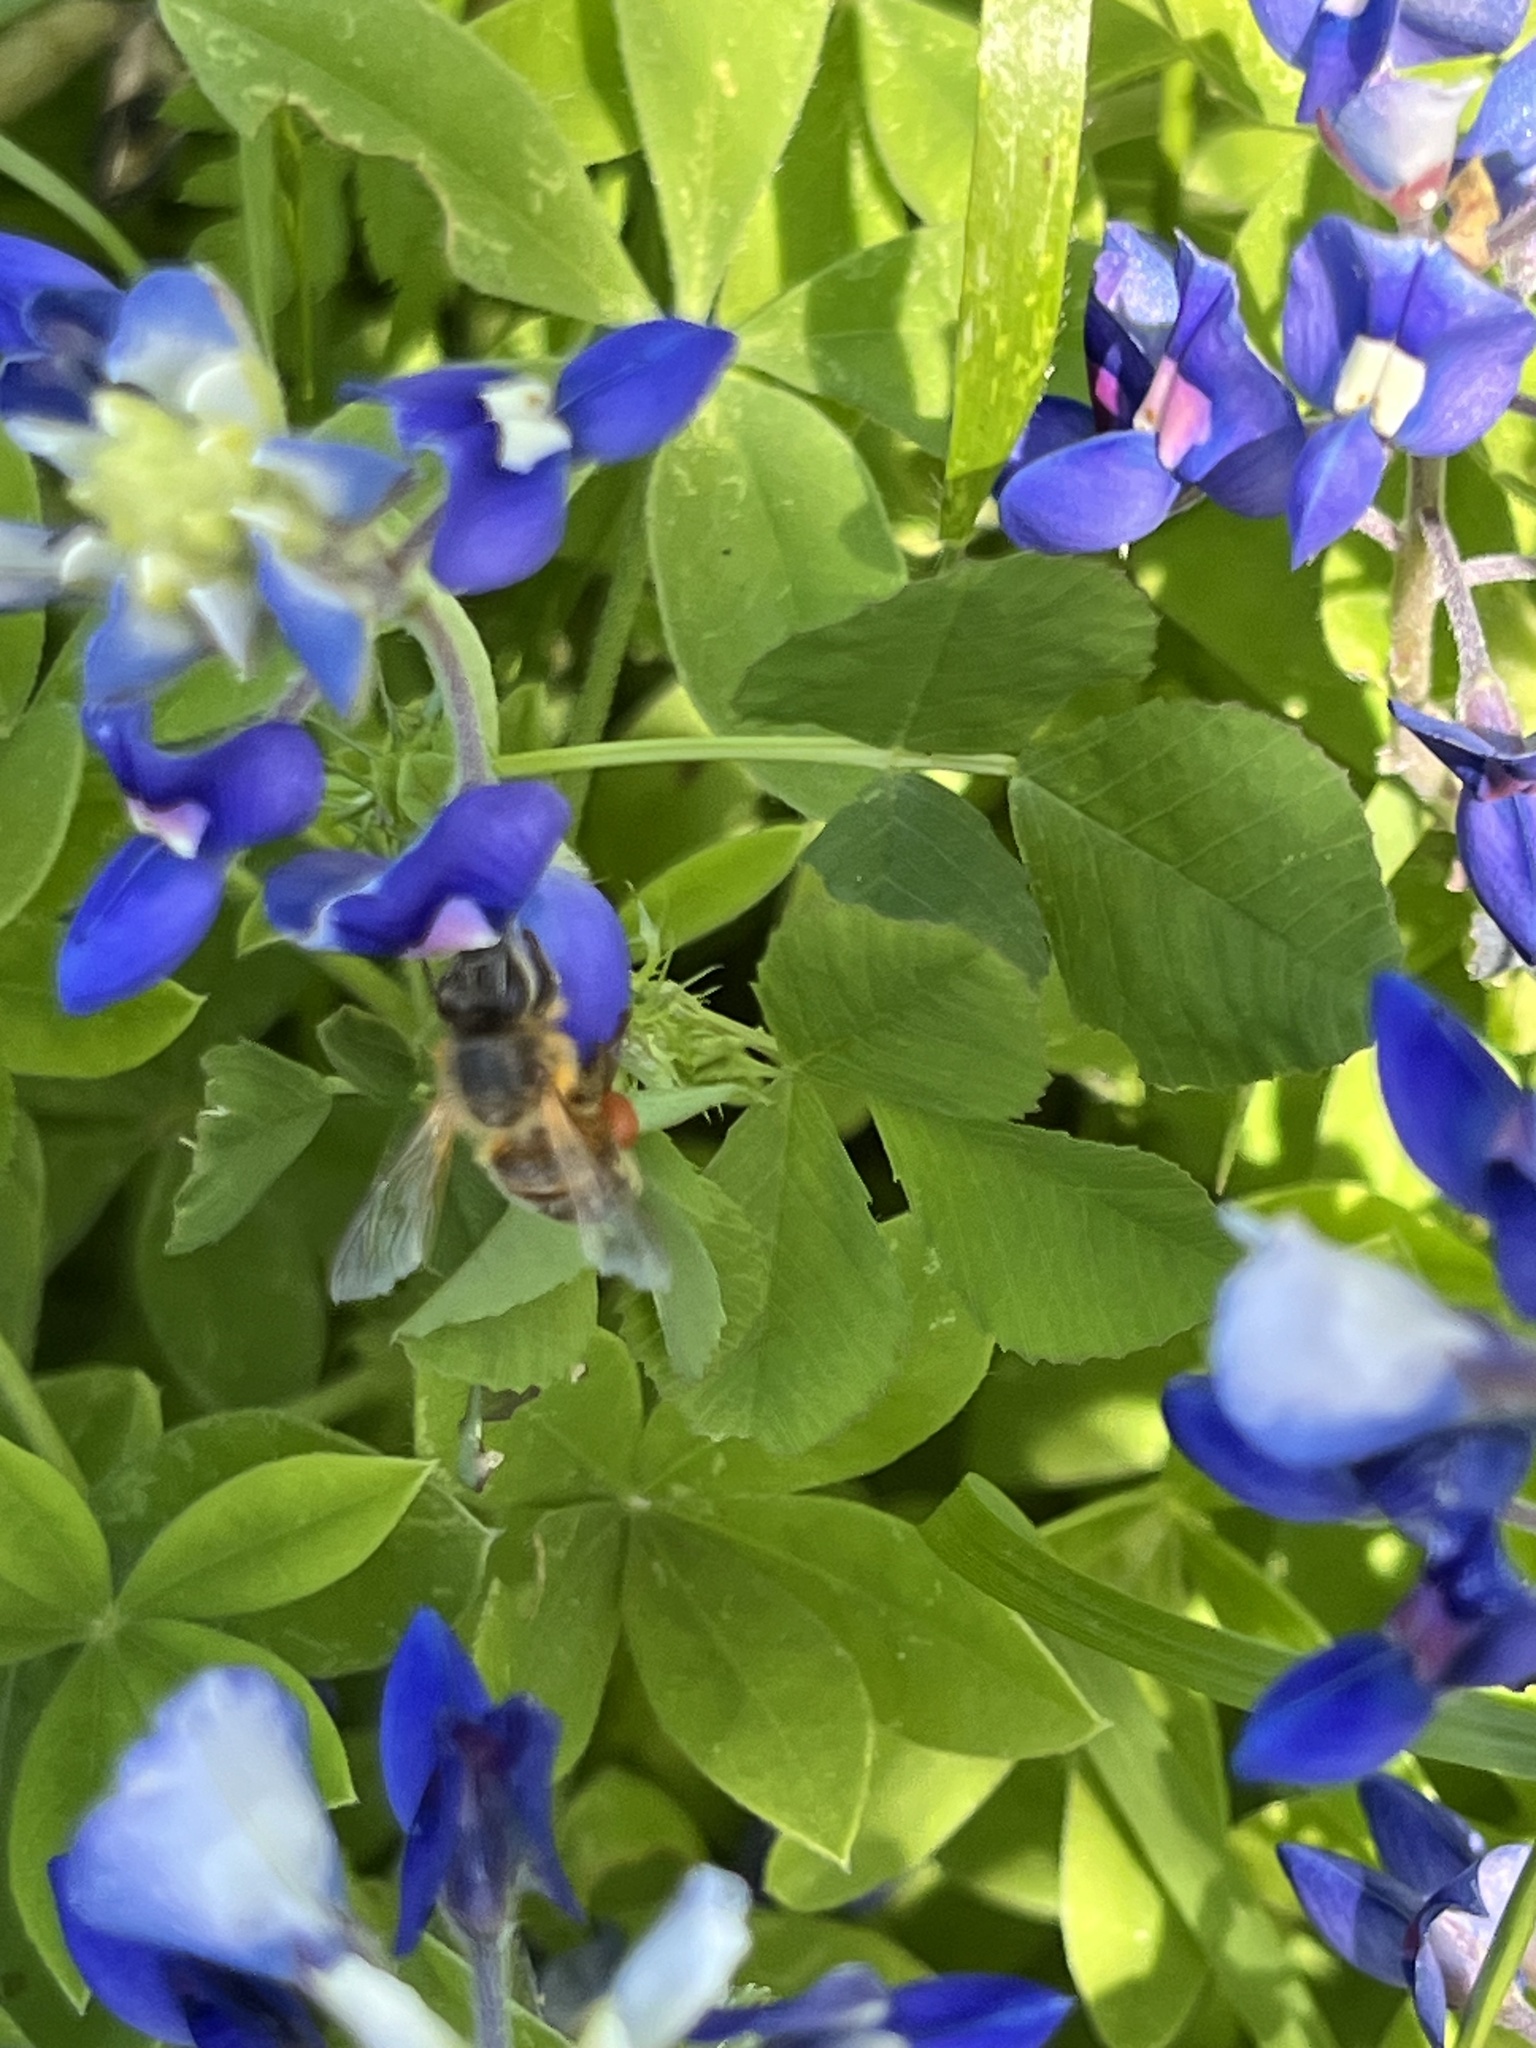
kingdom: Animalia
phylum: Arthropoda
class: Insecta
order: Hymenoptera
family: Apidae
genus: Apis
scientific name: Apis mellifera
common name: Honey bee
